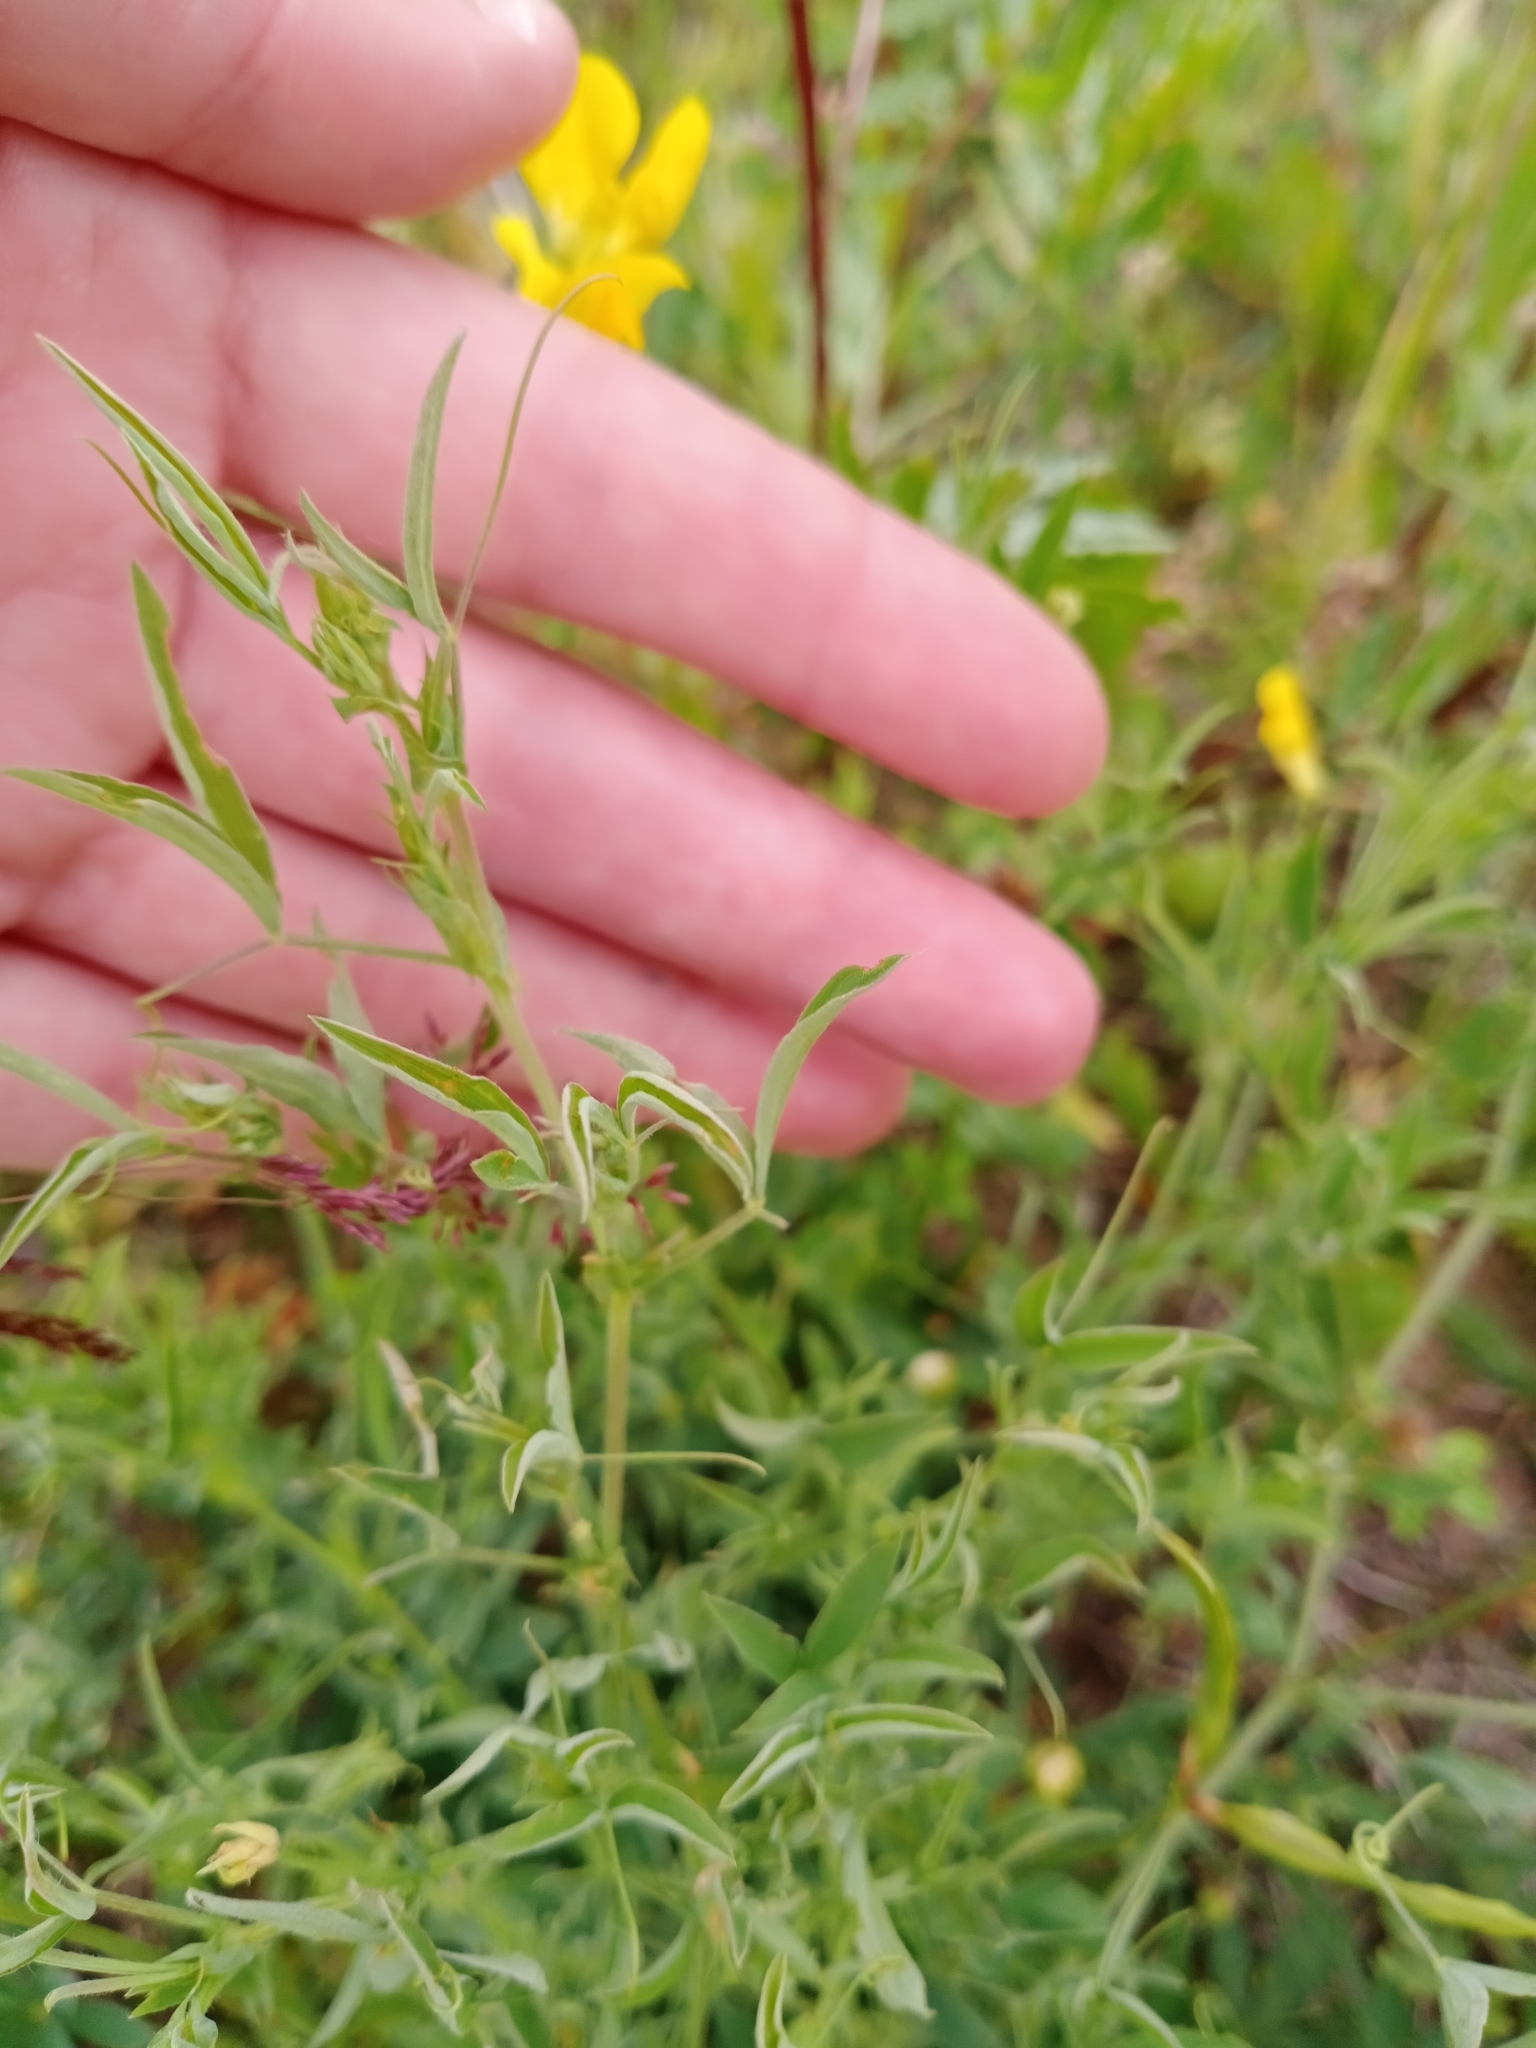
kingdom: Plantae
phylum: Tracheophyta
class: Magnoliopsida
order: Fabales
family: Fabaceae
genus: Lathyrus
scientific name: Lathyrus pratensis
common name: Meadow vetchling
